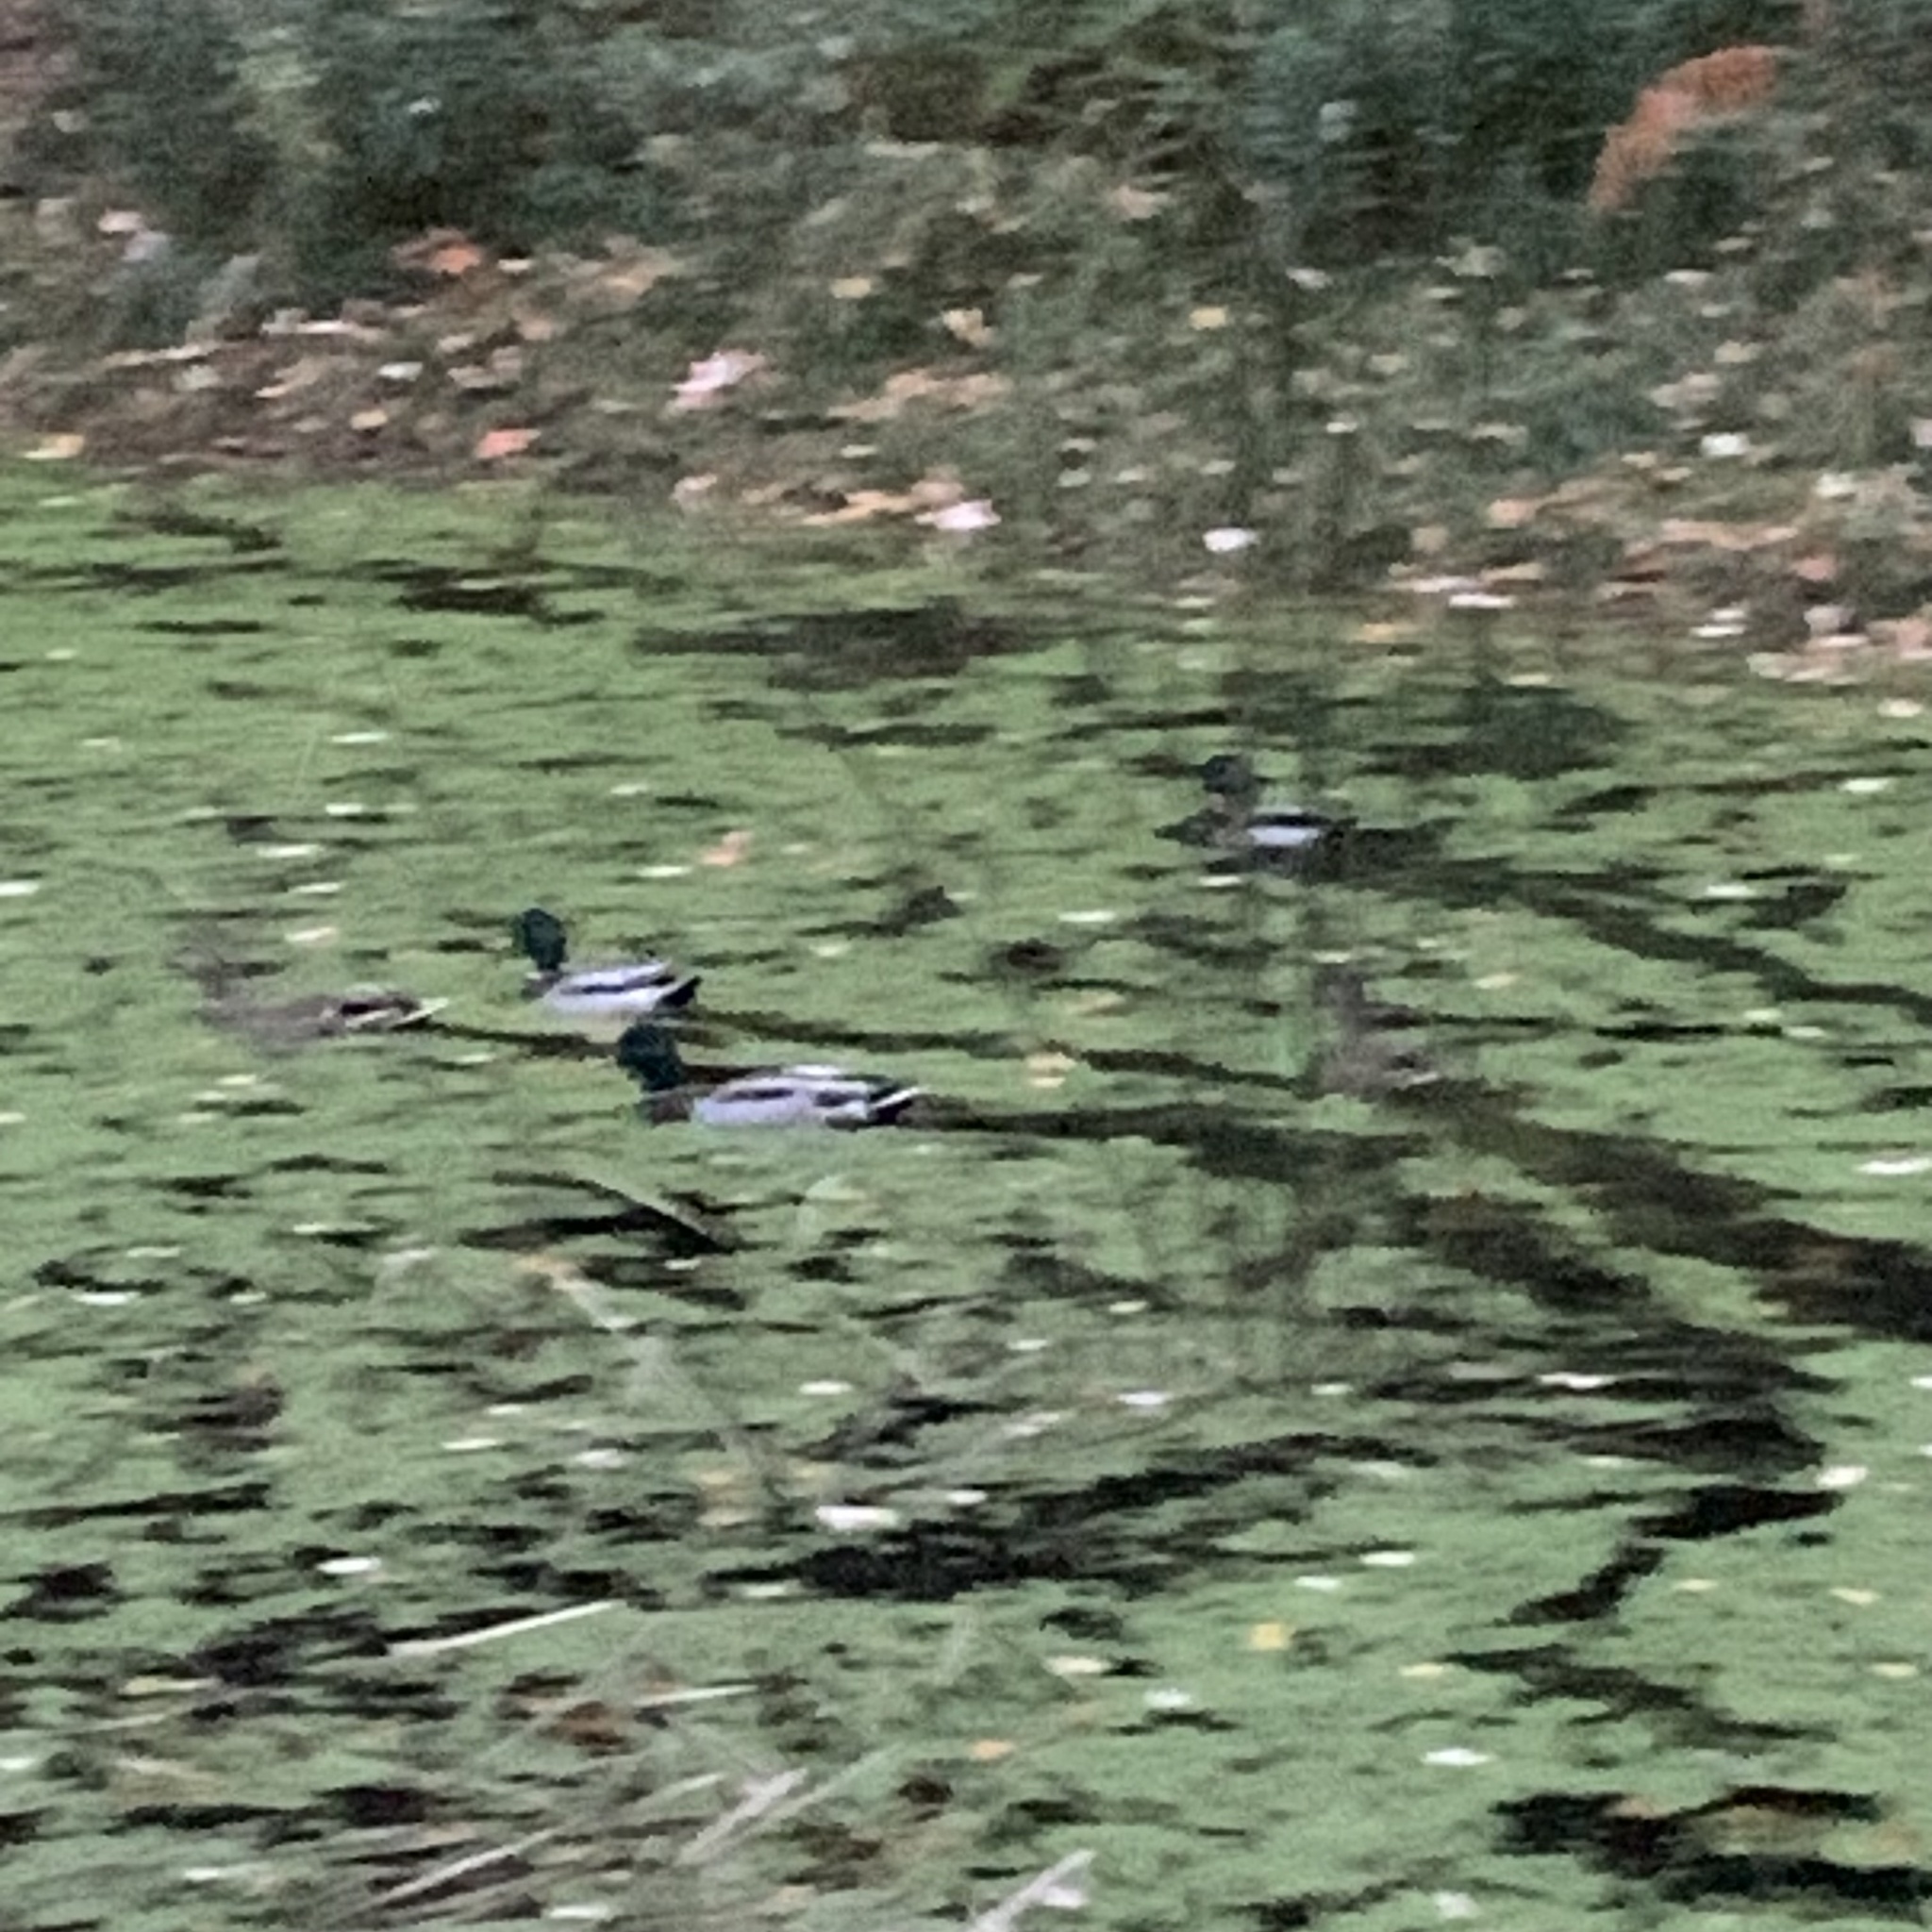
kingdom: Animalia
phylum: Chordata
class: Aves
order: Anseriformes
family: Anatidae
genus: Anas
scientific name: Anas platyrhynchos
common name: Mallard
